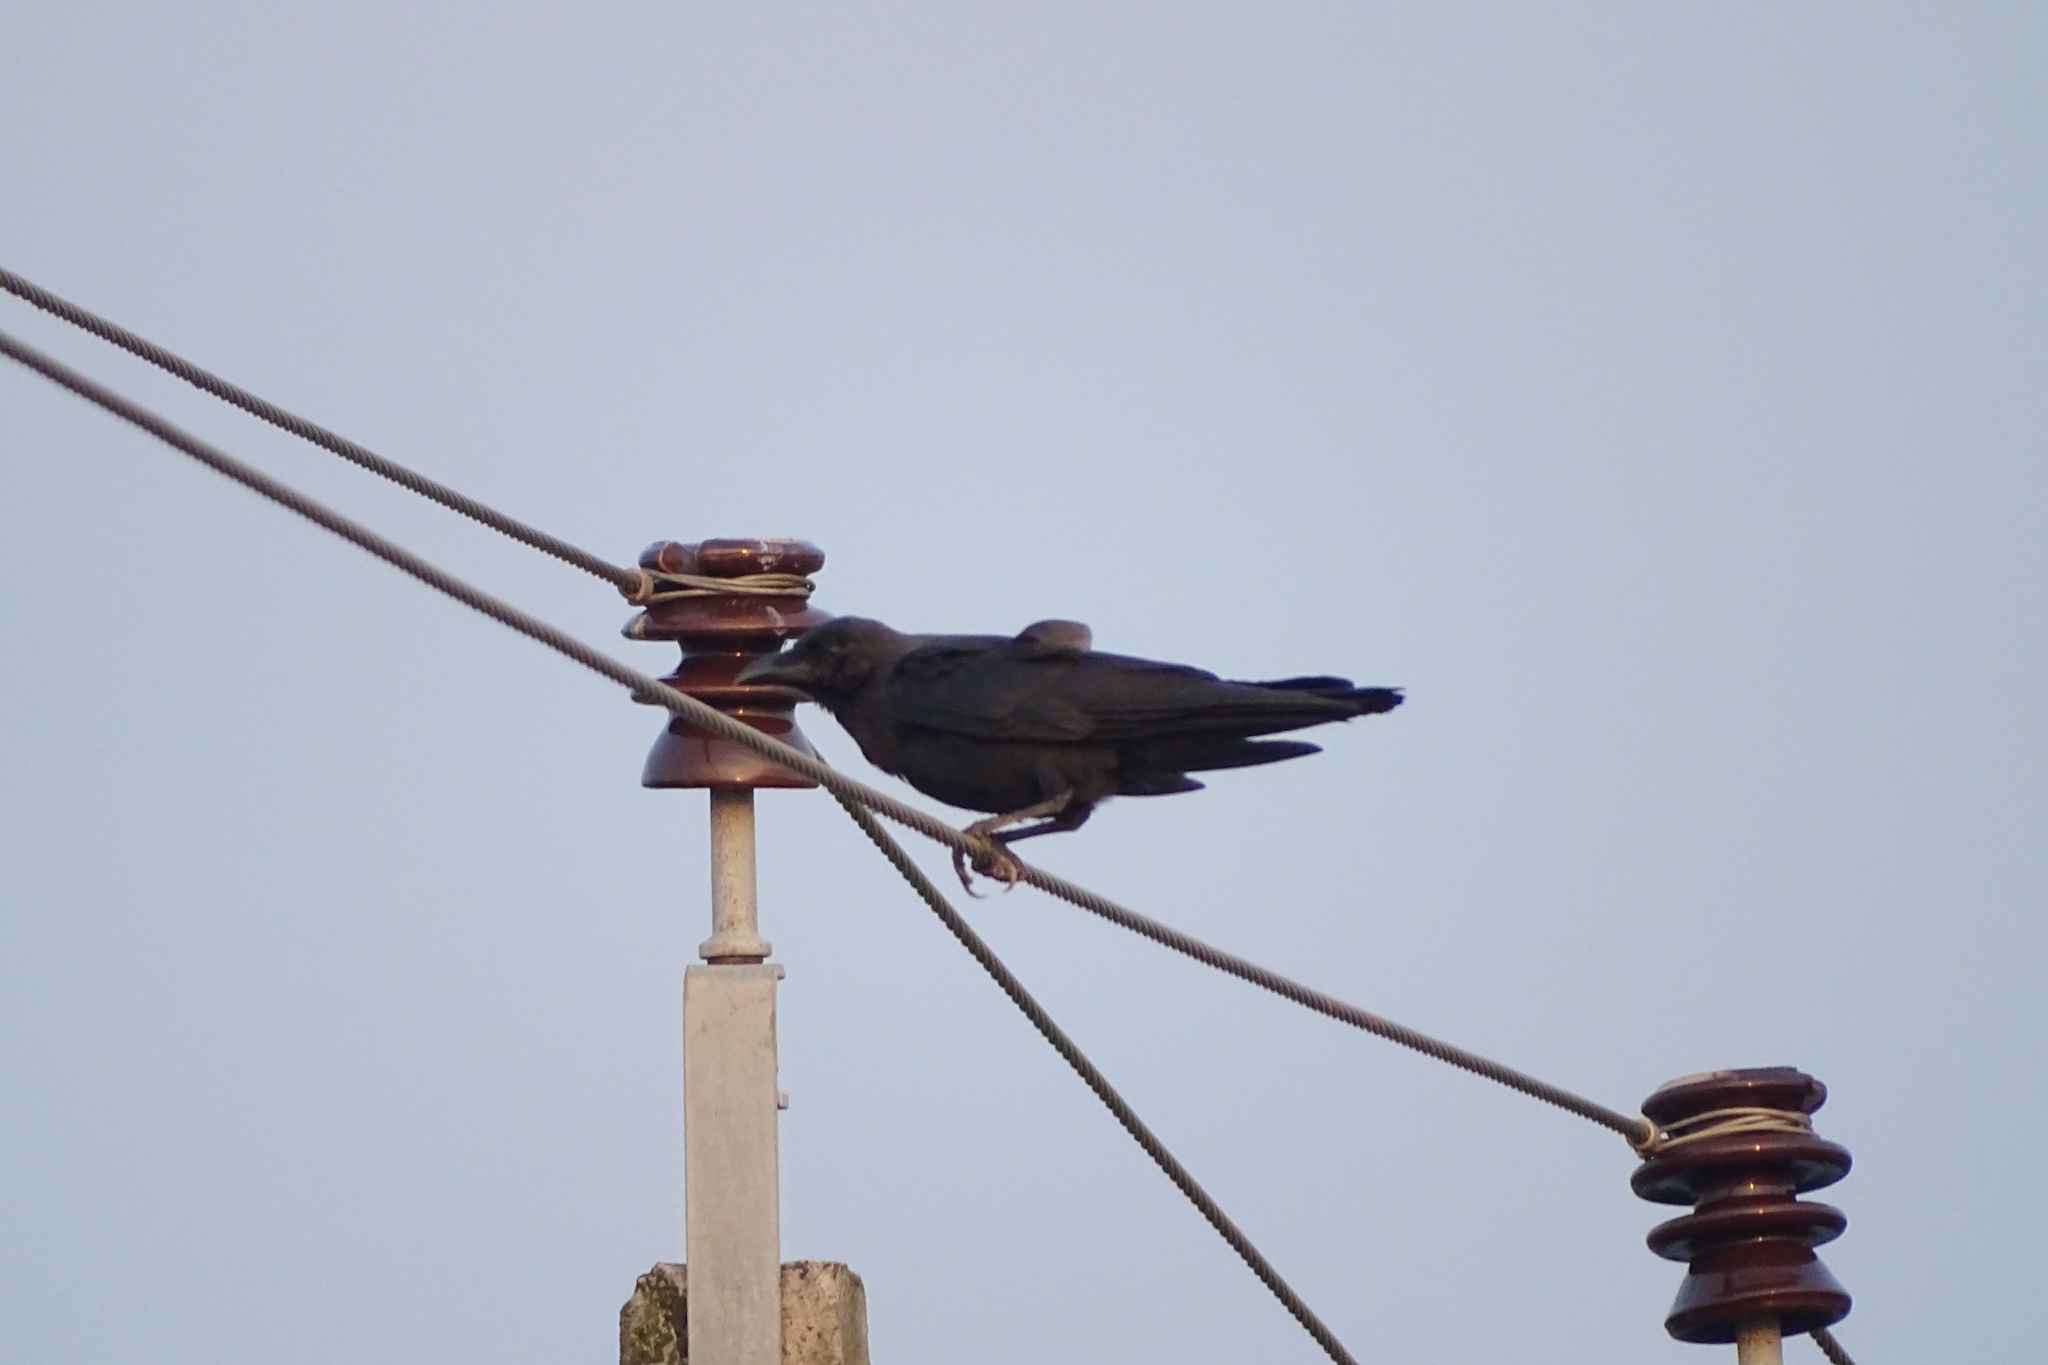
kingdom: Animalia
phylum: Chordata
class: Aves
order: Passeriformes
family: Corvidae
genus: Corvus
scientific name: Corvus splendens
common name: House crow
